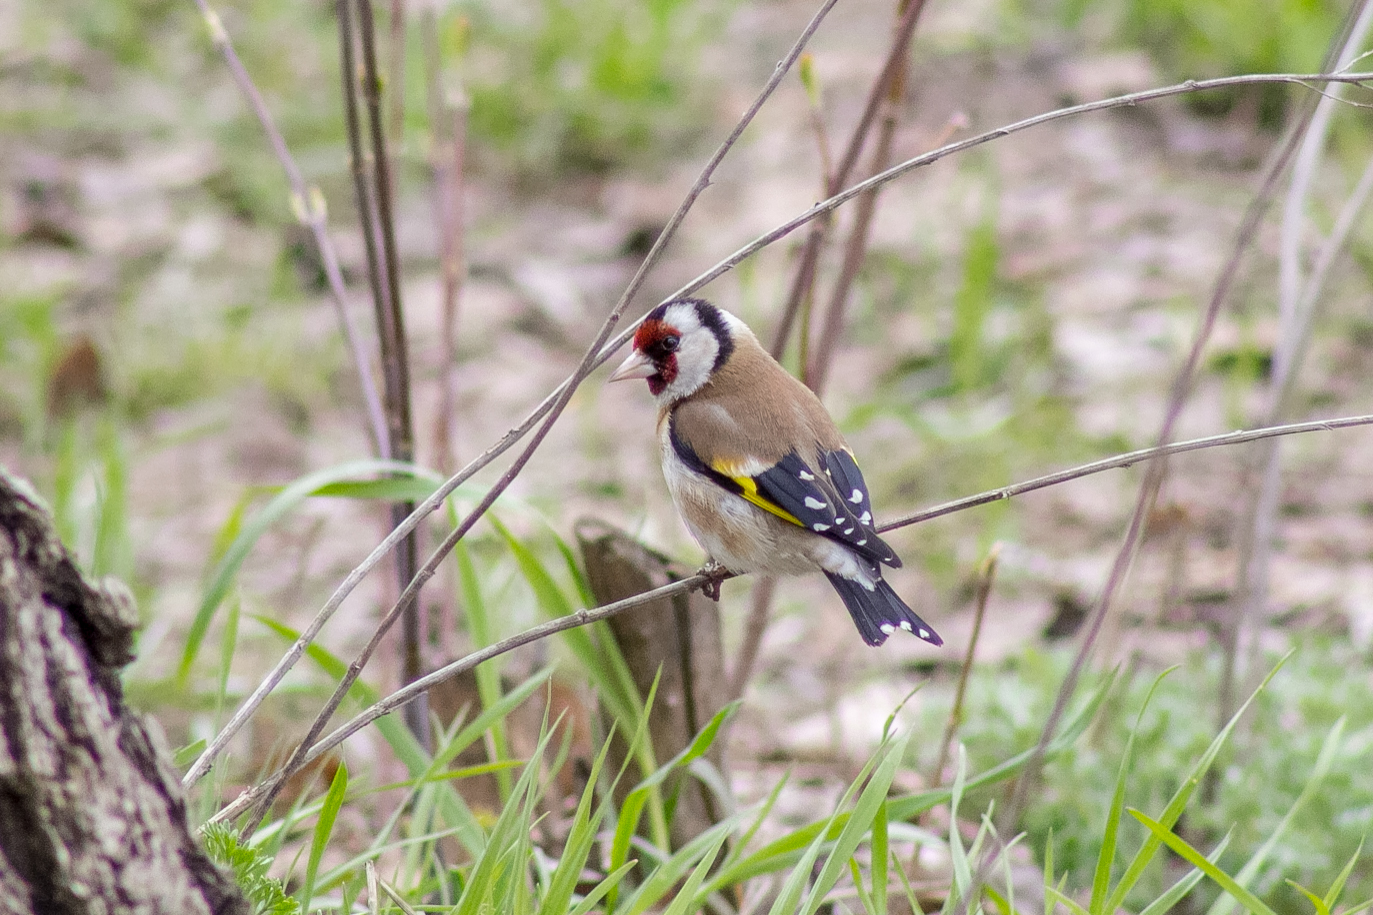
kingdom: Animalia
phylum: Chordata
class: Aves
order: Passeriformes
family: Fringillidae
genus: Carduelis
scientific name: Carduelis carduelis
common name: European goldfinch
